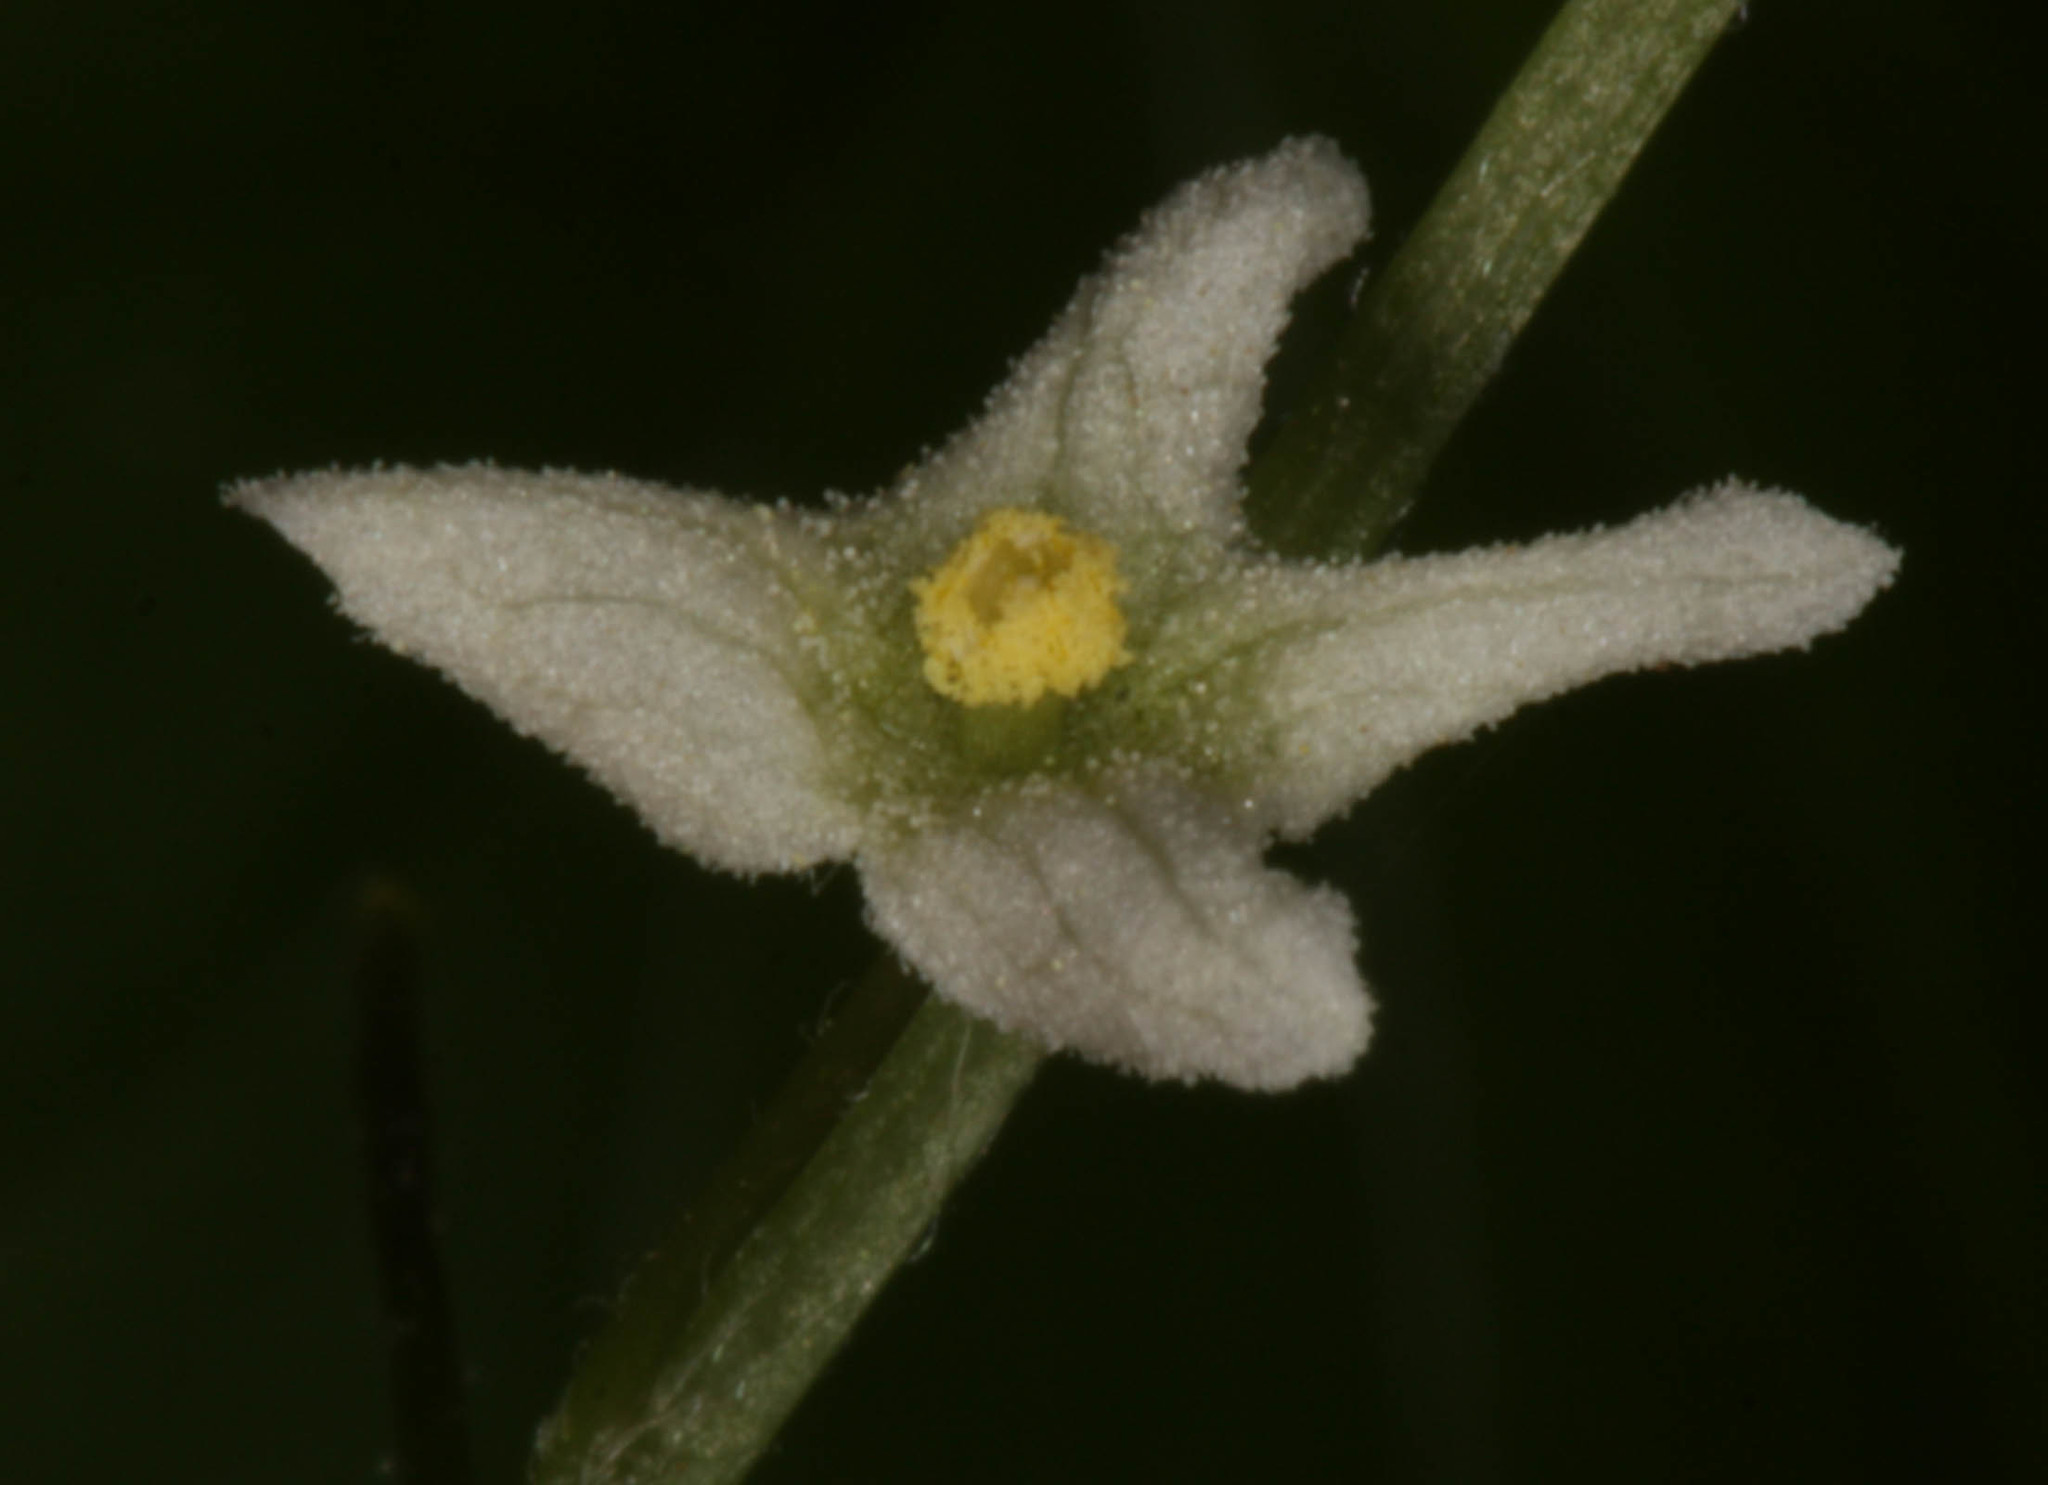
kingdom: Plantae
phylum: Tracheophyta
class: Magnoliopsida
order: Cucurbitales
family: Cucurbitaceae
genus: Marah
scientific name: Marah fabacea
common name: California manroot
